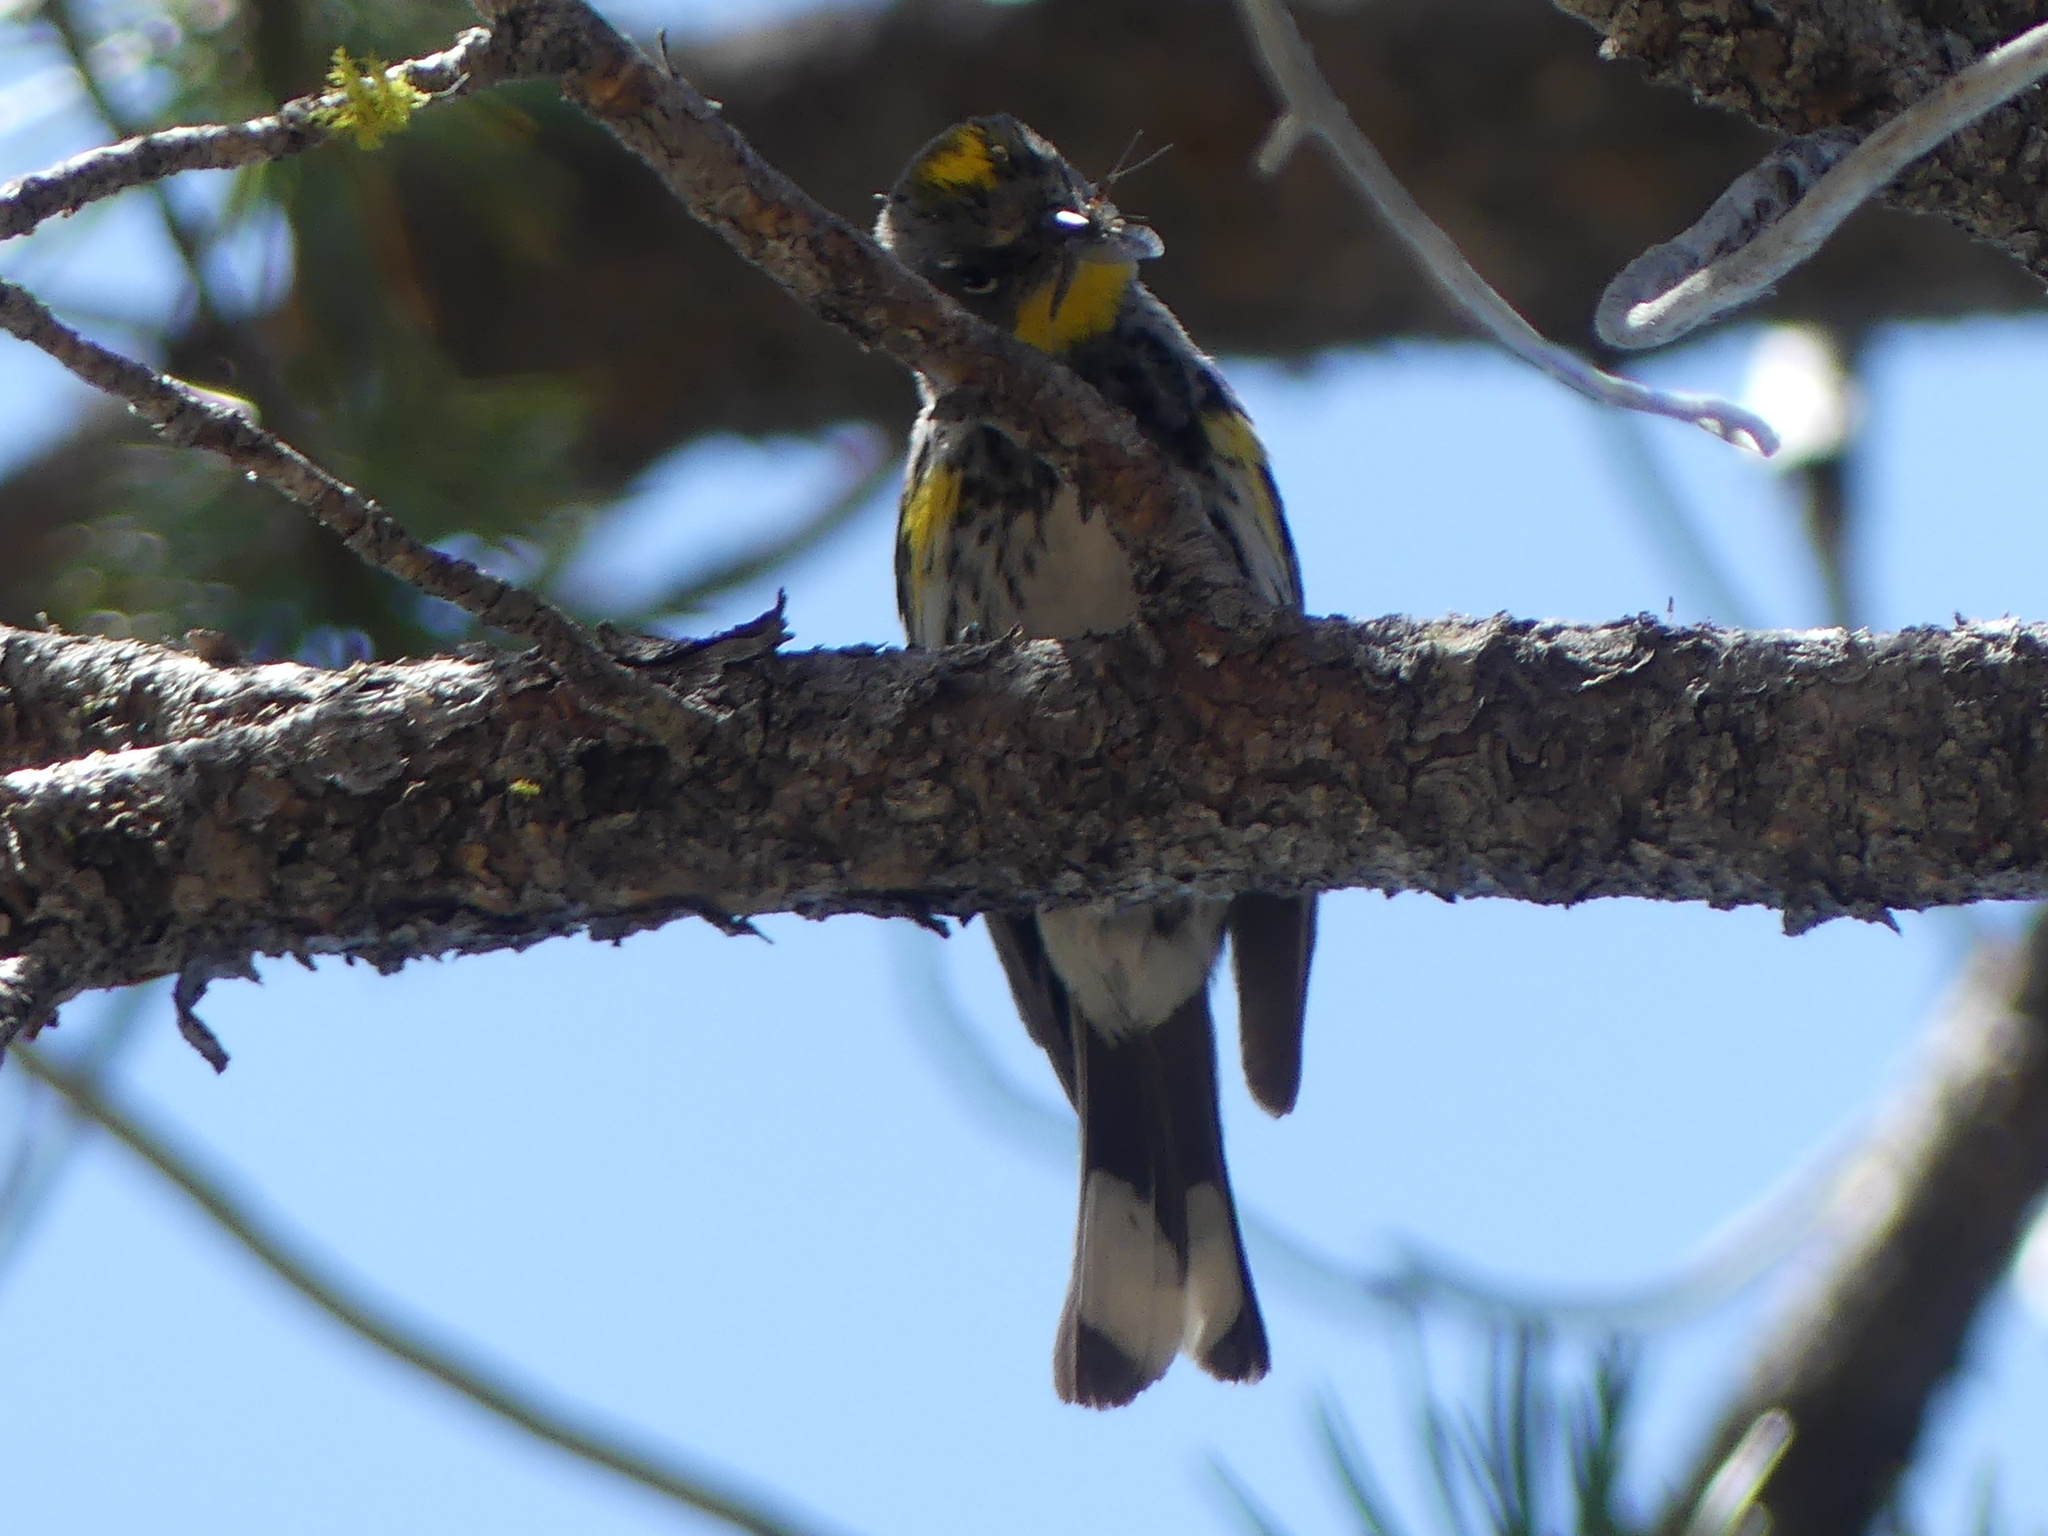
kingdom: Animalia
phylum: Chordata
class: Aves
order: Passeriformes
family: Parulidae
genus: Setophaga
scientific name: Setophaga coronata
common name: Myrtle warbler
